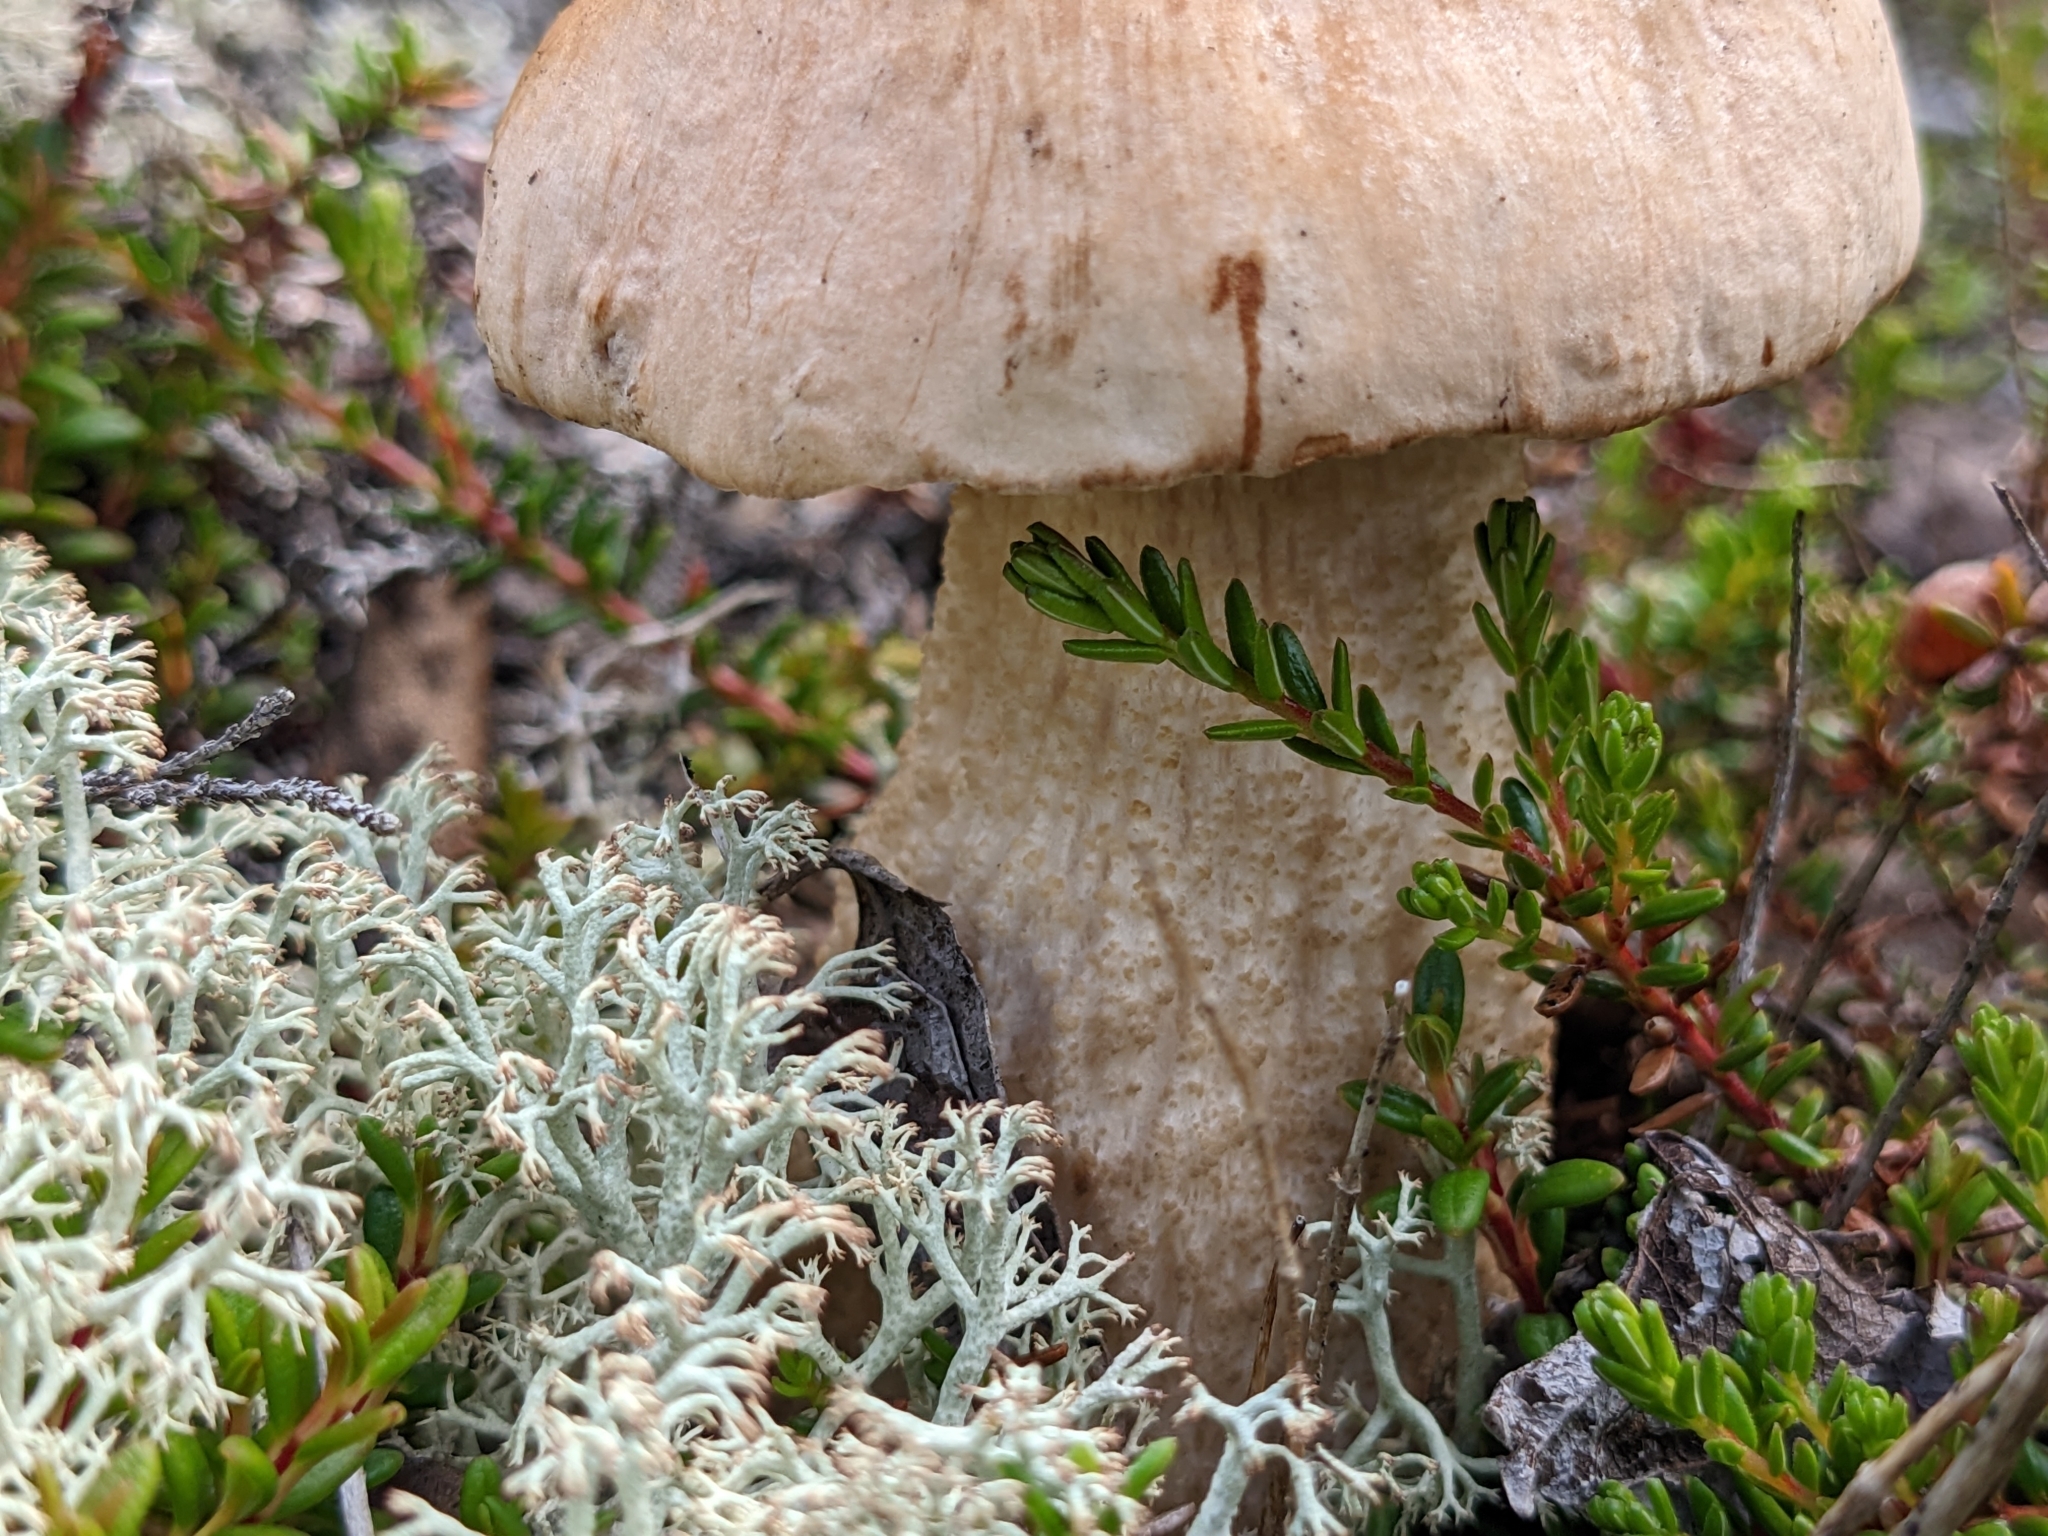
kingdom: Fungi
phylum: Basidiomycota
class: Agaricomycetes
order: Boletales
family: Boletaceae
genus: Leccinum
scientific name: Leccinum scabrum
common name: Blushing bolete
